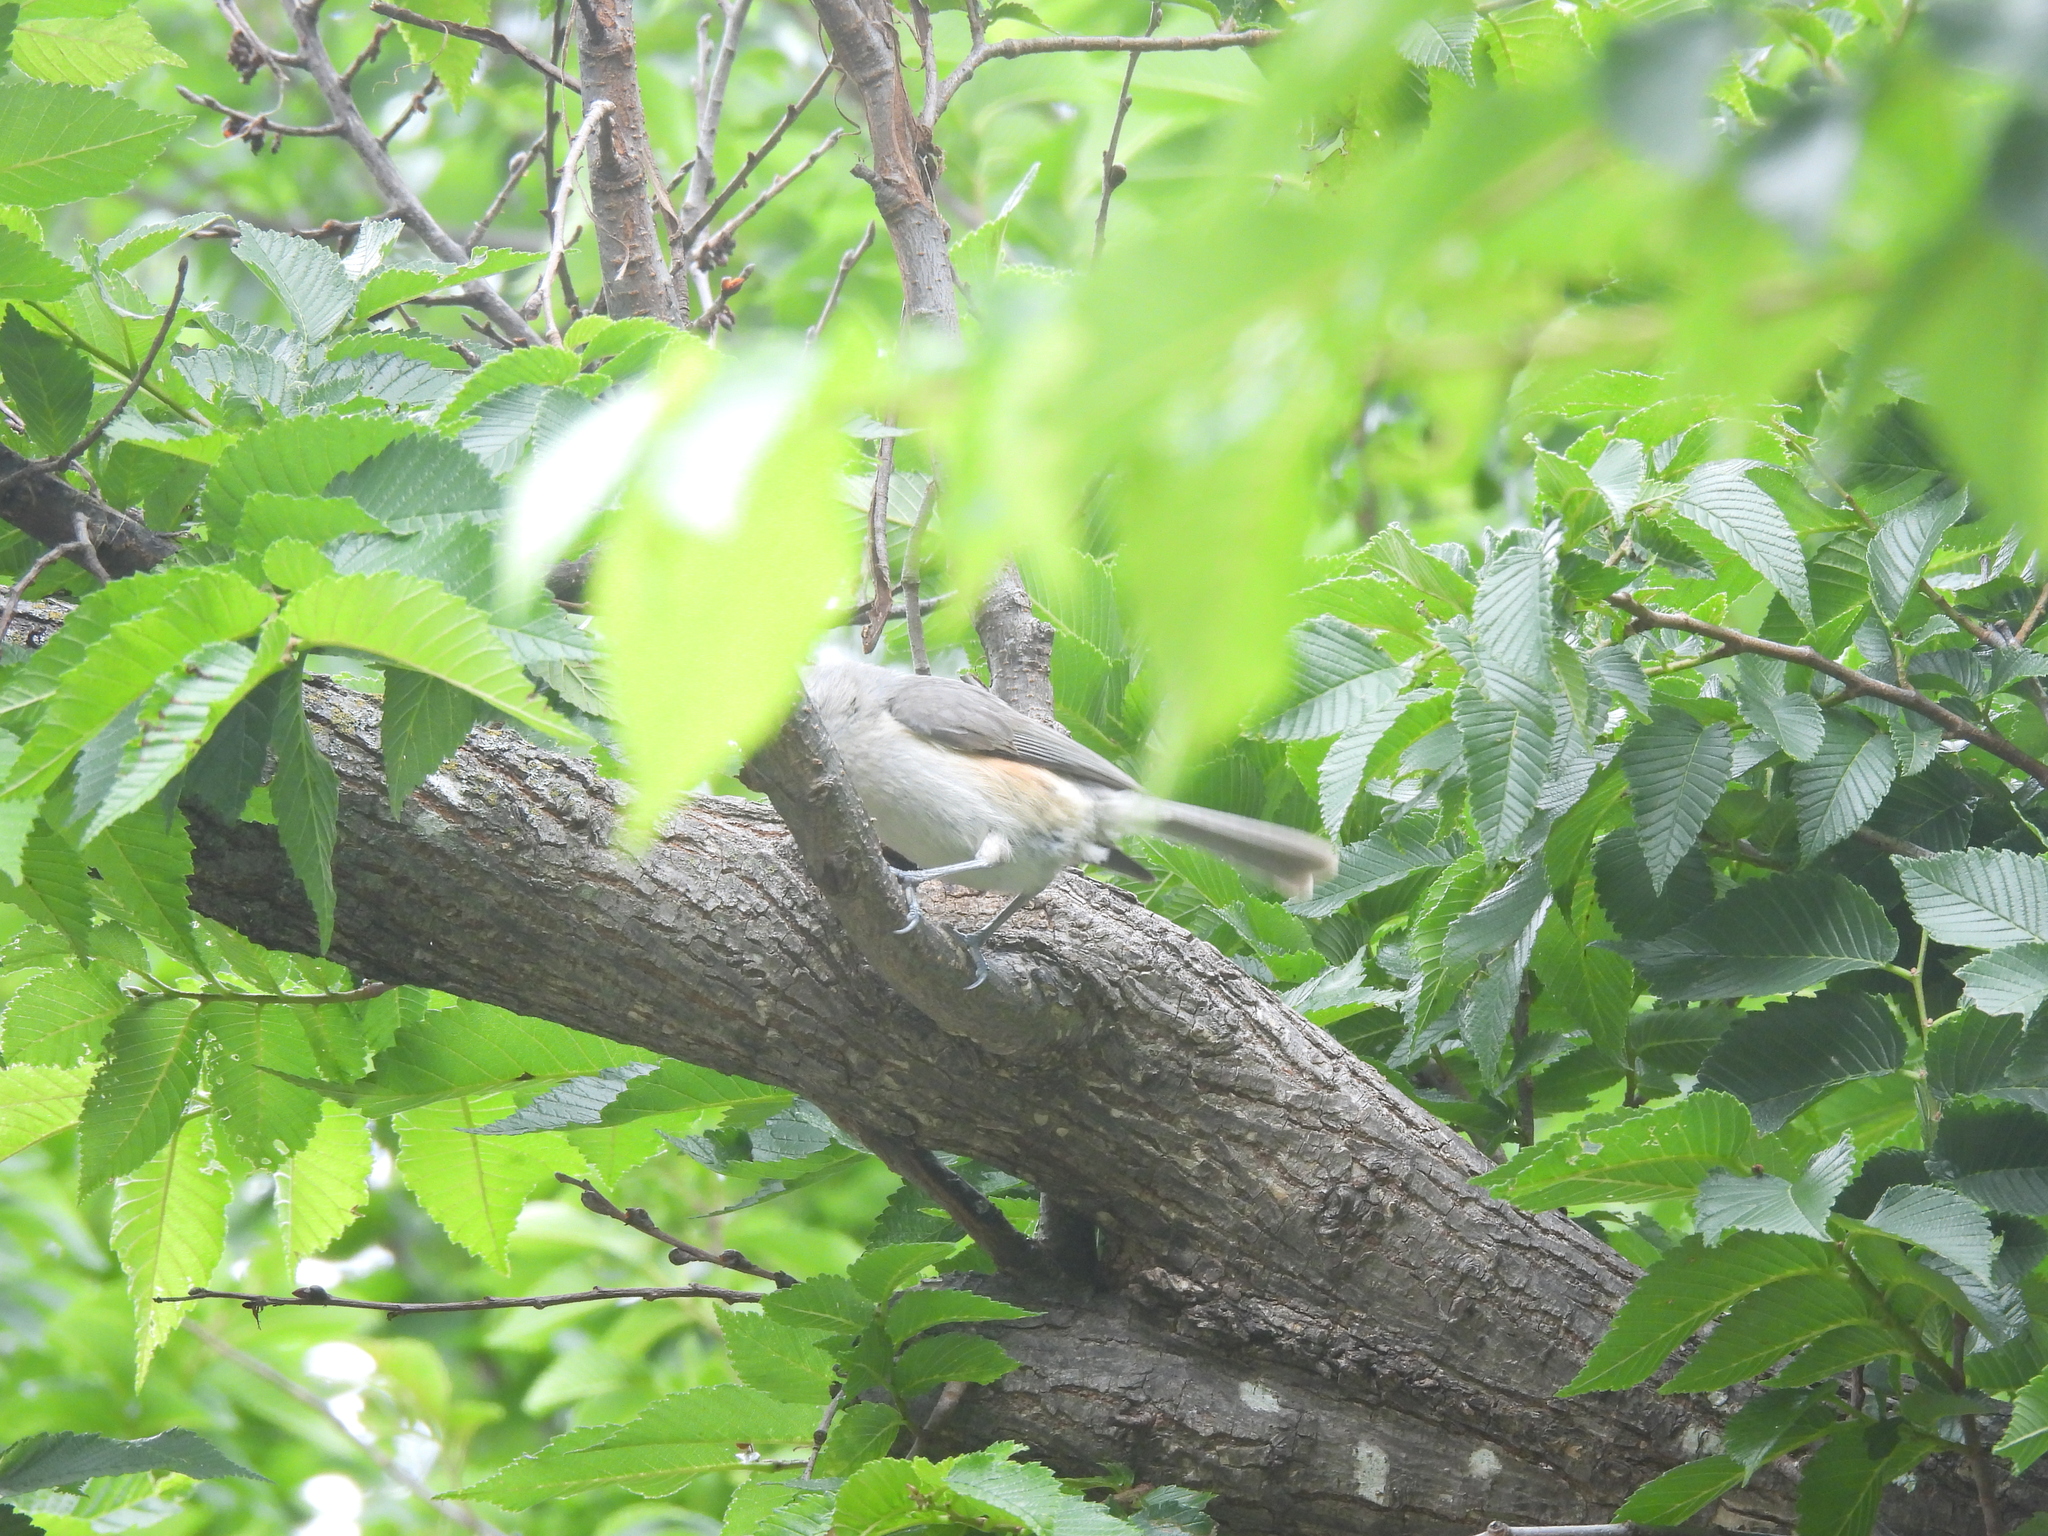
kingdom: Animalia
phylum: Chordata
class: Aves
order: Passeriformes
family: Paridae
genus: Baeolophus
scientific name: Baeolophus bicolor
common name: Tufted titmouse
